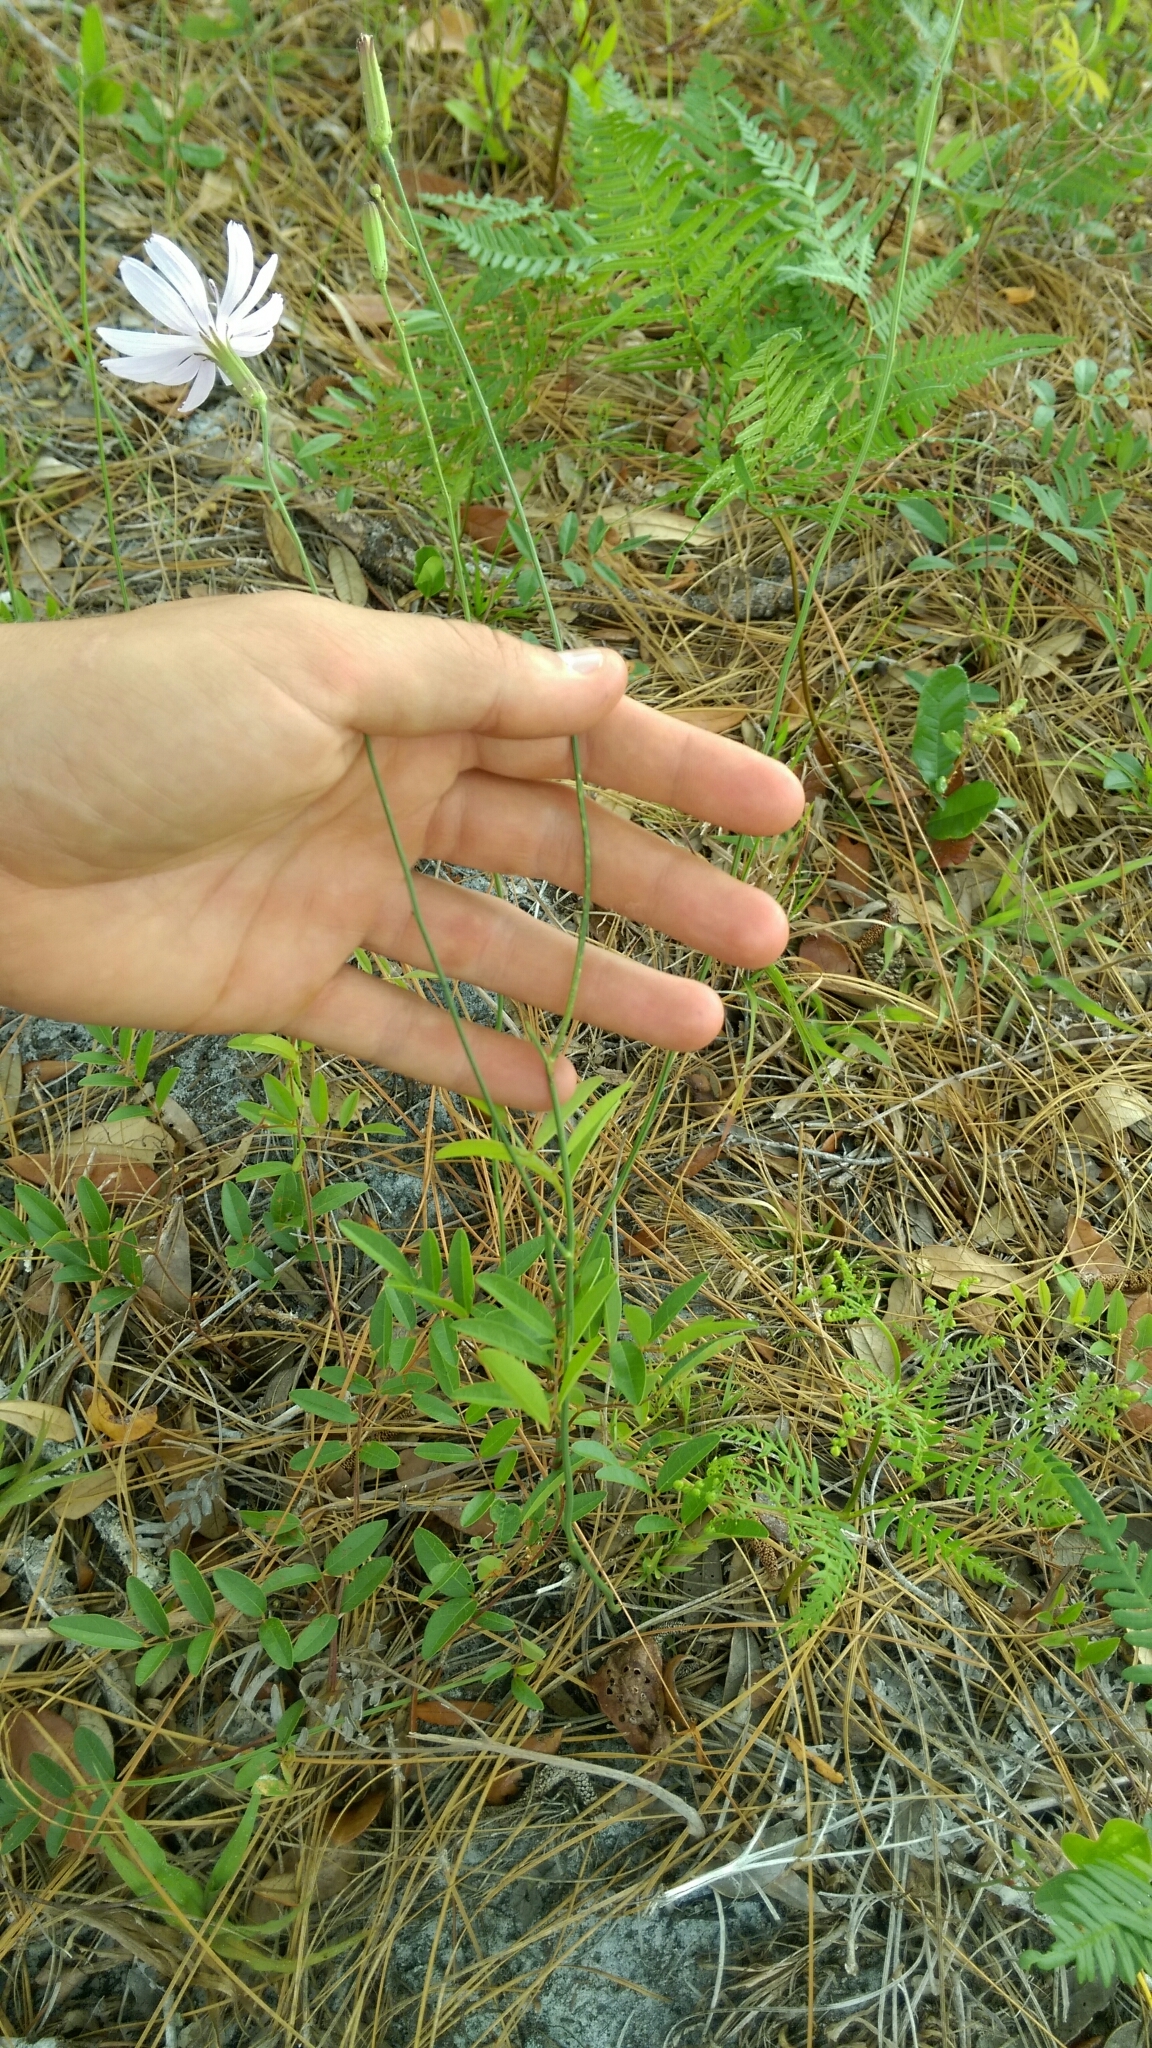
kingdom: Plantae
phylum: Tracheophyta
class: Magnoliopsida
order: Asterales
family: Asteraceae
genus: Lygodesmia
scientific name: Lygodesmia aphylla
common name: Rose-rush
